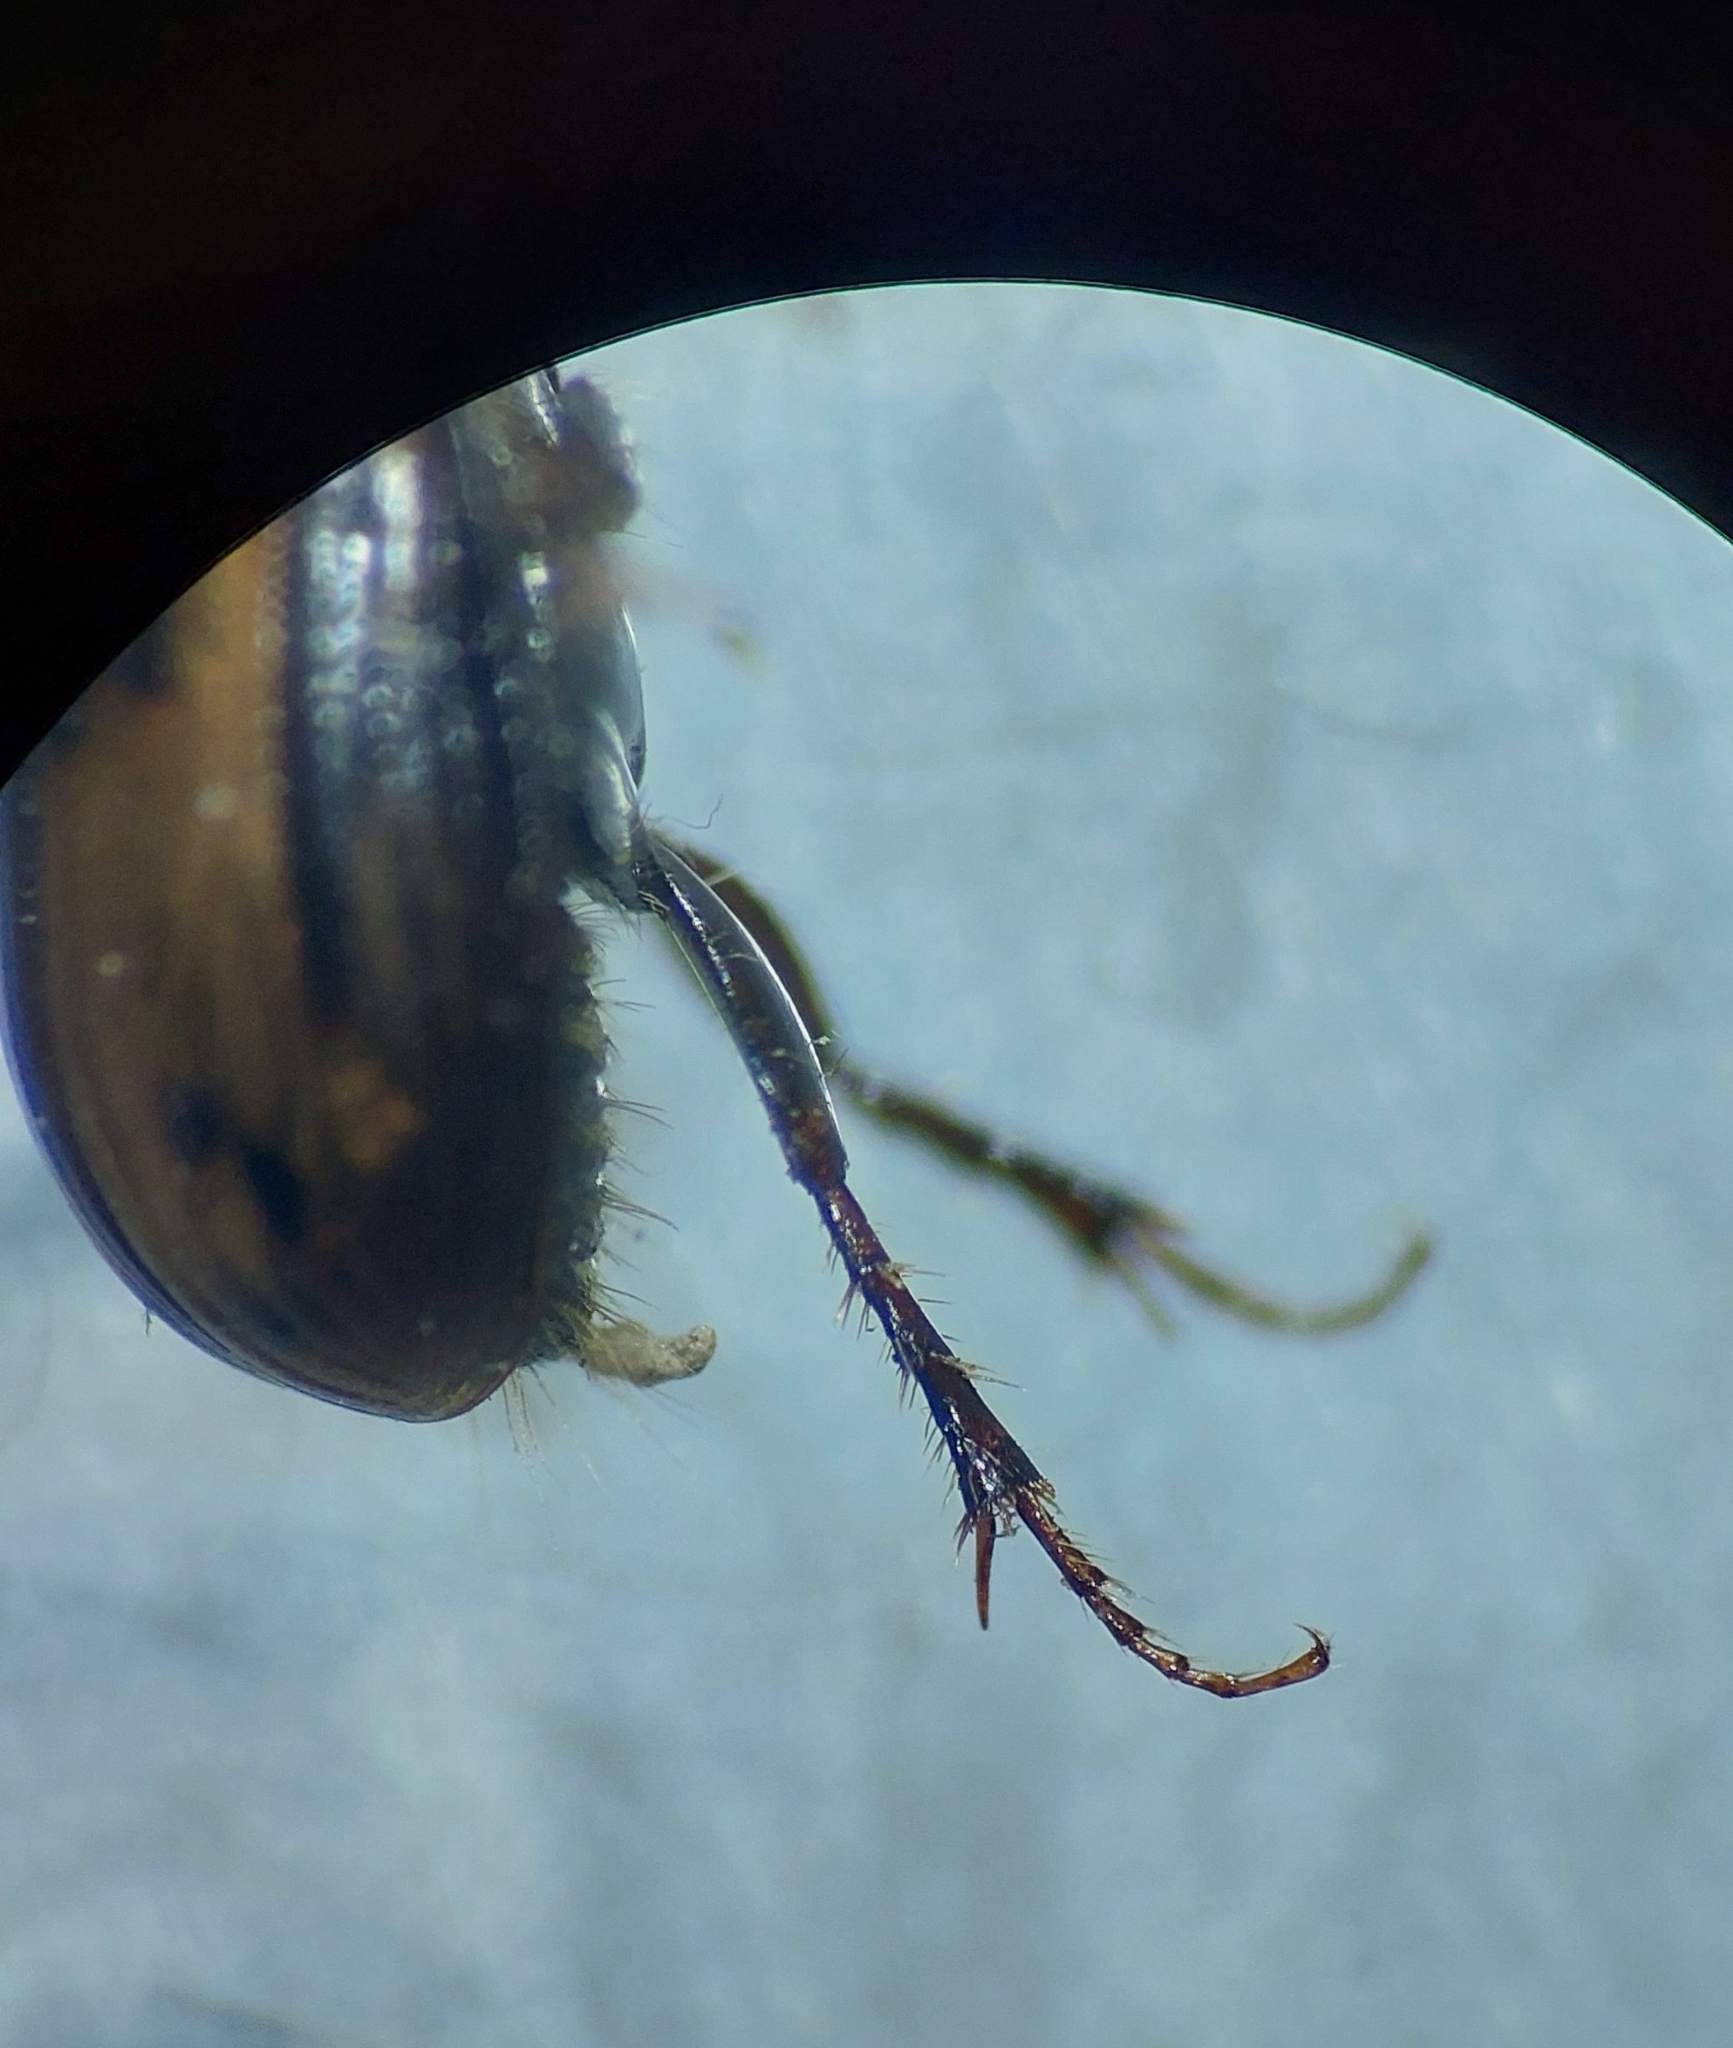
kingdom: Animalia
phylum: Arthropoda
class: Insecta
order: Coleoptera
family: Scarabaeidae
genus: Chilothorax
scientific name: Chilothorax distinctus
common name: Maculated dung beetle
